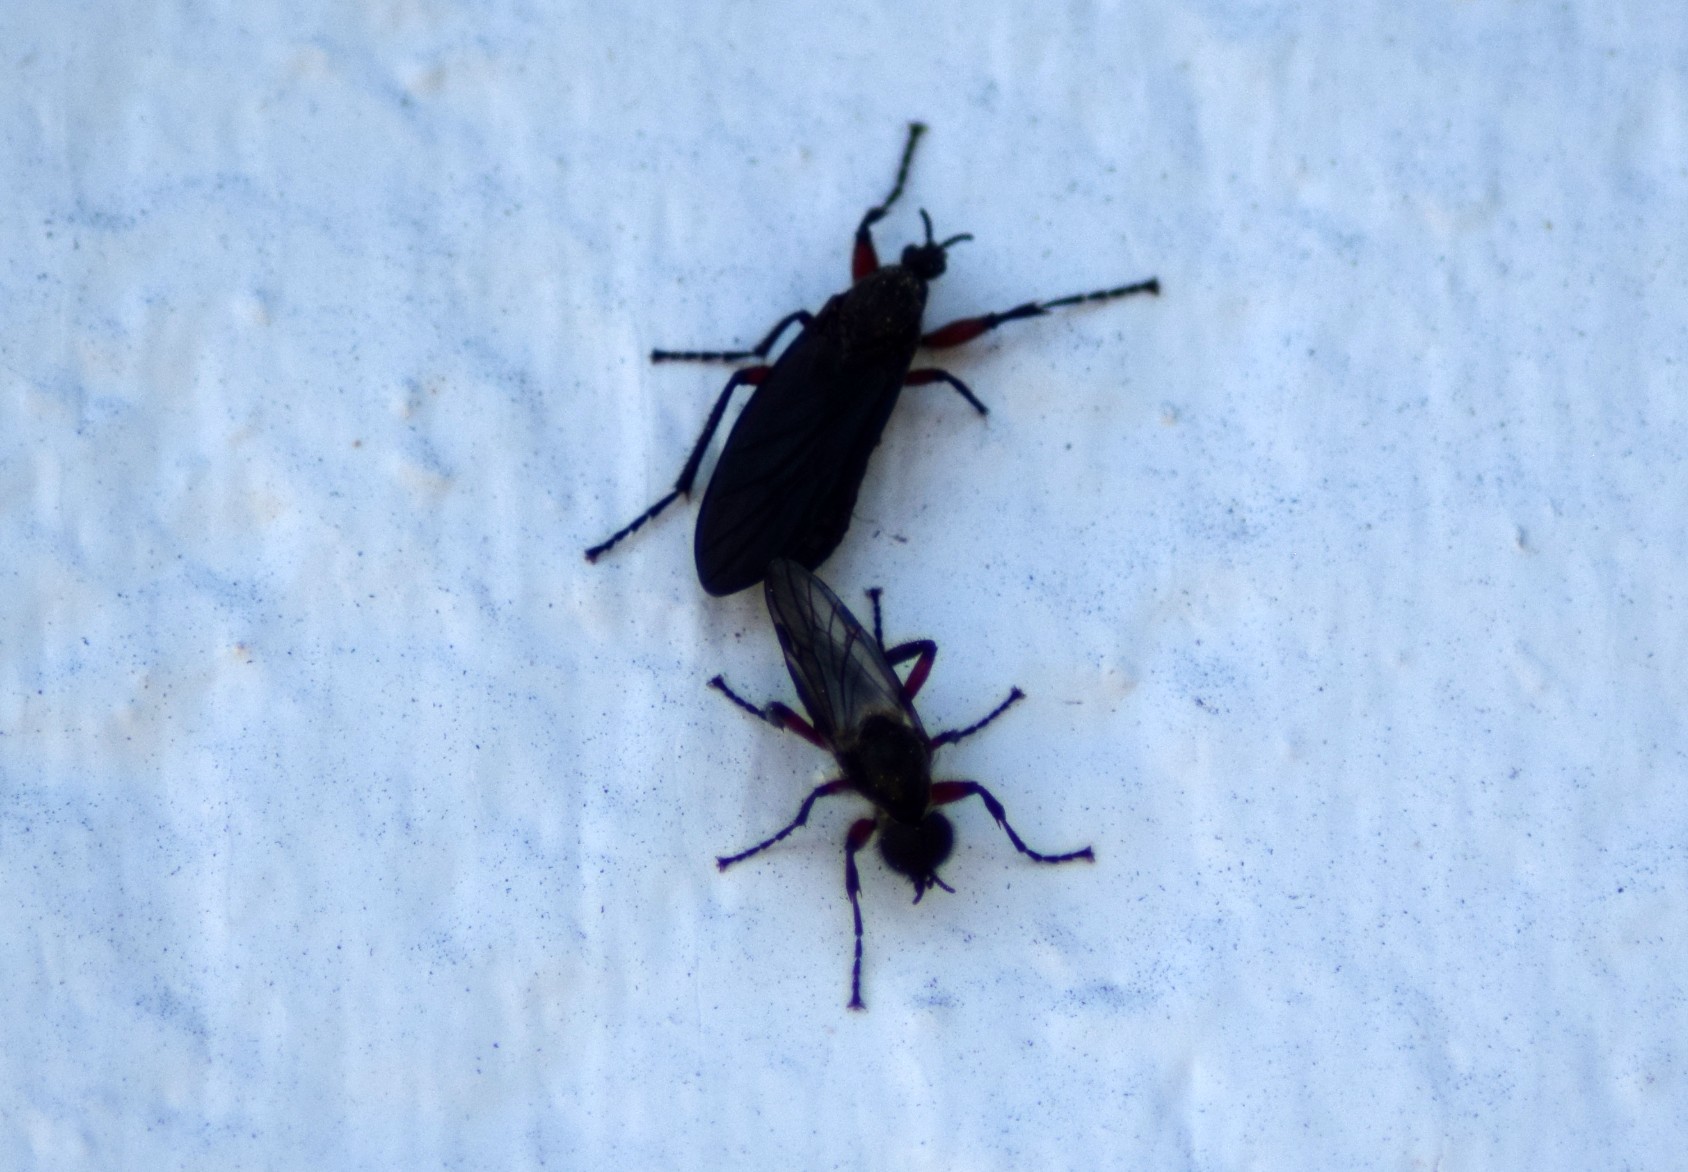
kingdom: Animalia
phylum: Arthropoda
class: Insecta
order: Diptera
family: Bibionidae
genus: Bibio
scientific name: Bibio femoratus
